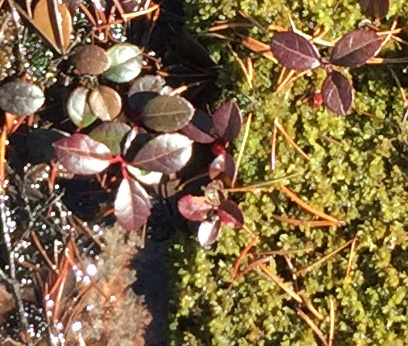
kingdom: Plantae
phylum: Tracheophyta
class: Magnoliopsida
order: Ericales
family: Ericaceae
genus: Gaultheria
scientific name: Gaultheria procumbens
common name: Checkerberry
